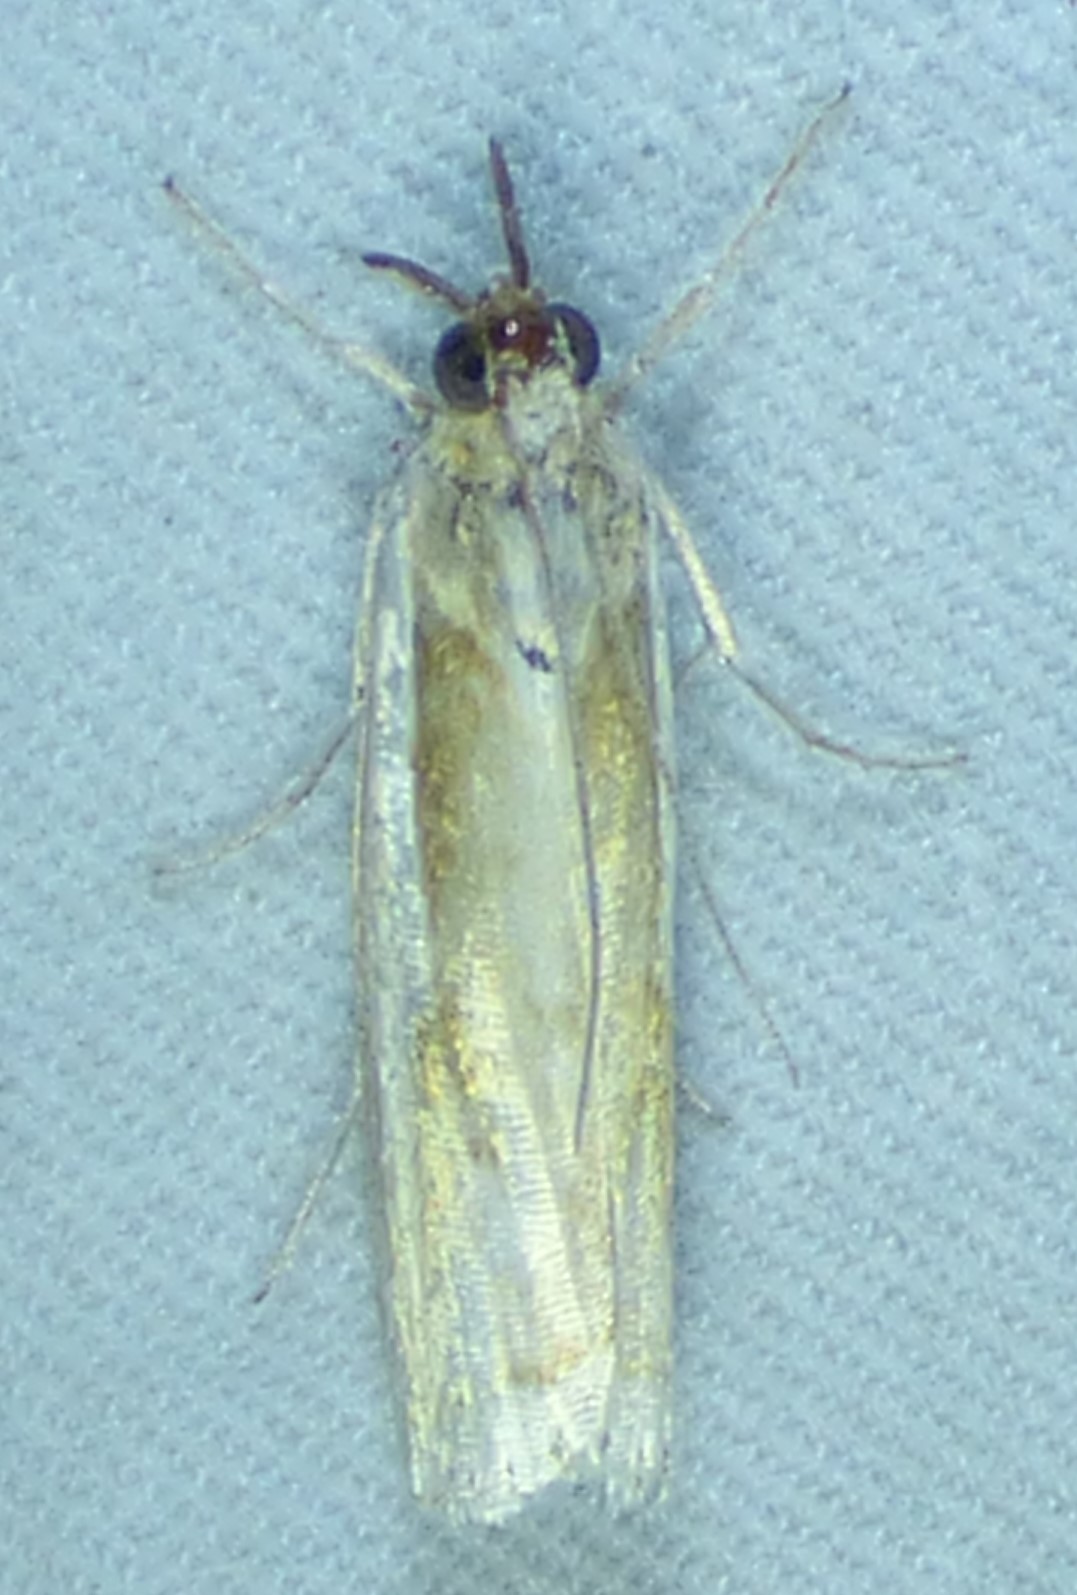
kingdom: Animalia
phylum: Arthropoda
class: Insecta
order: Lepidoptera
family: Crambidae
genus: Crambus
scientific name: Crambus praefectellus
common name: Common grass-veneer
